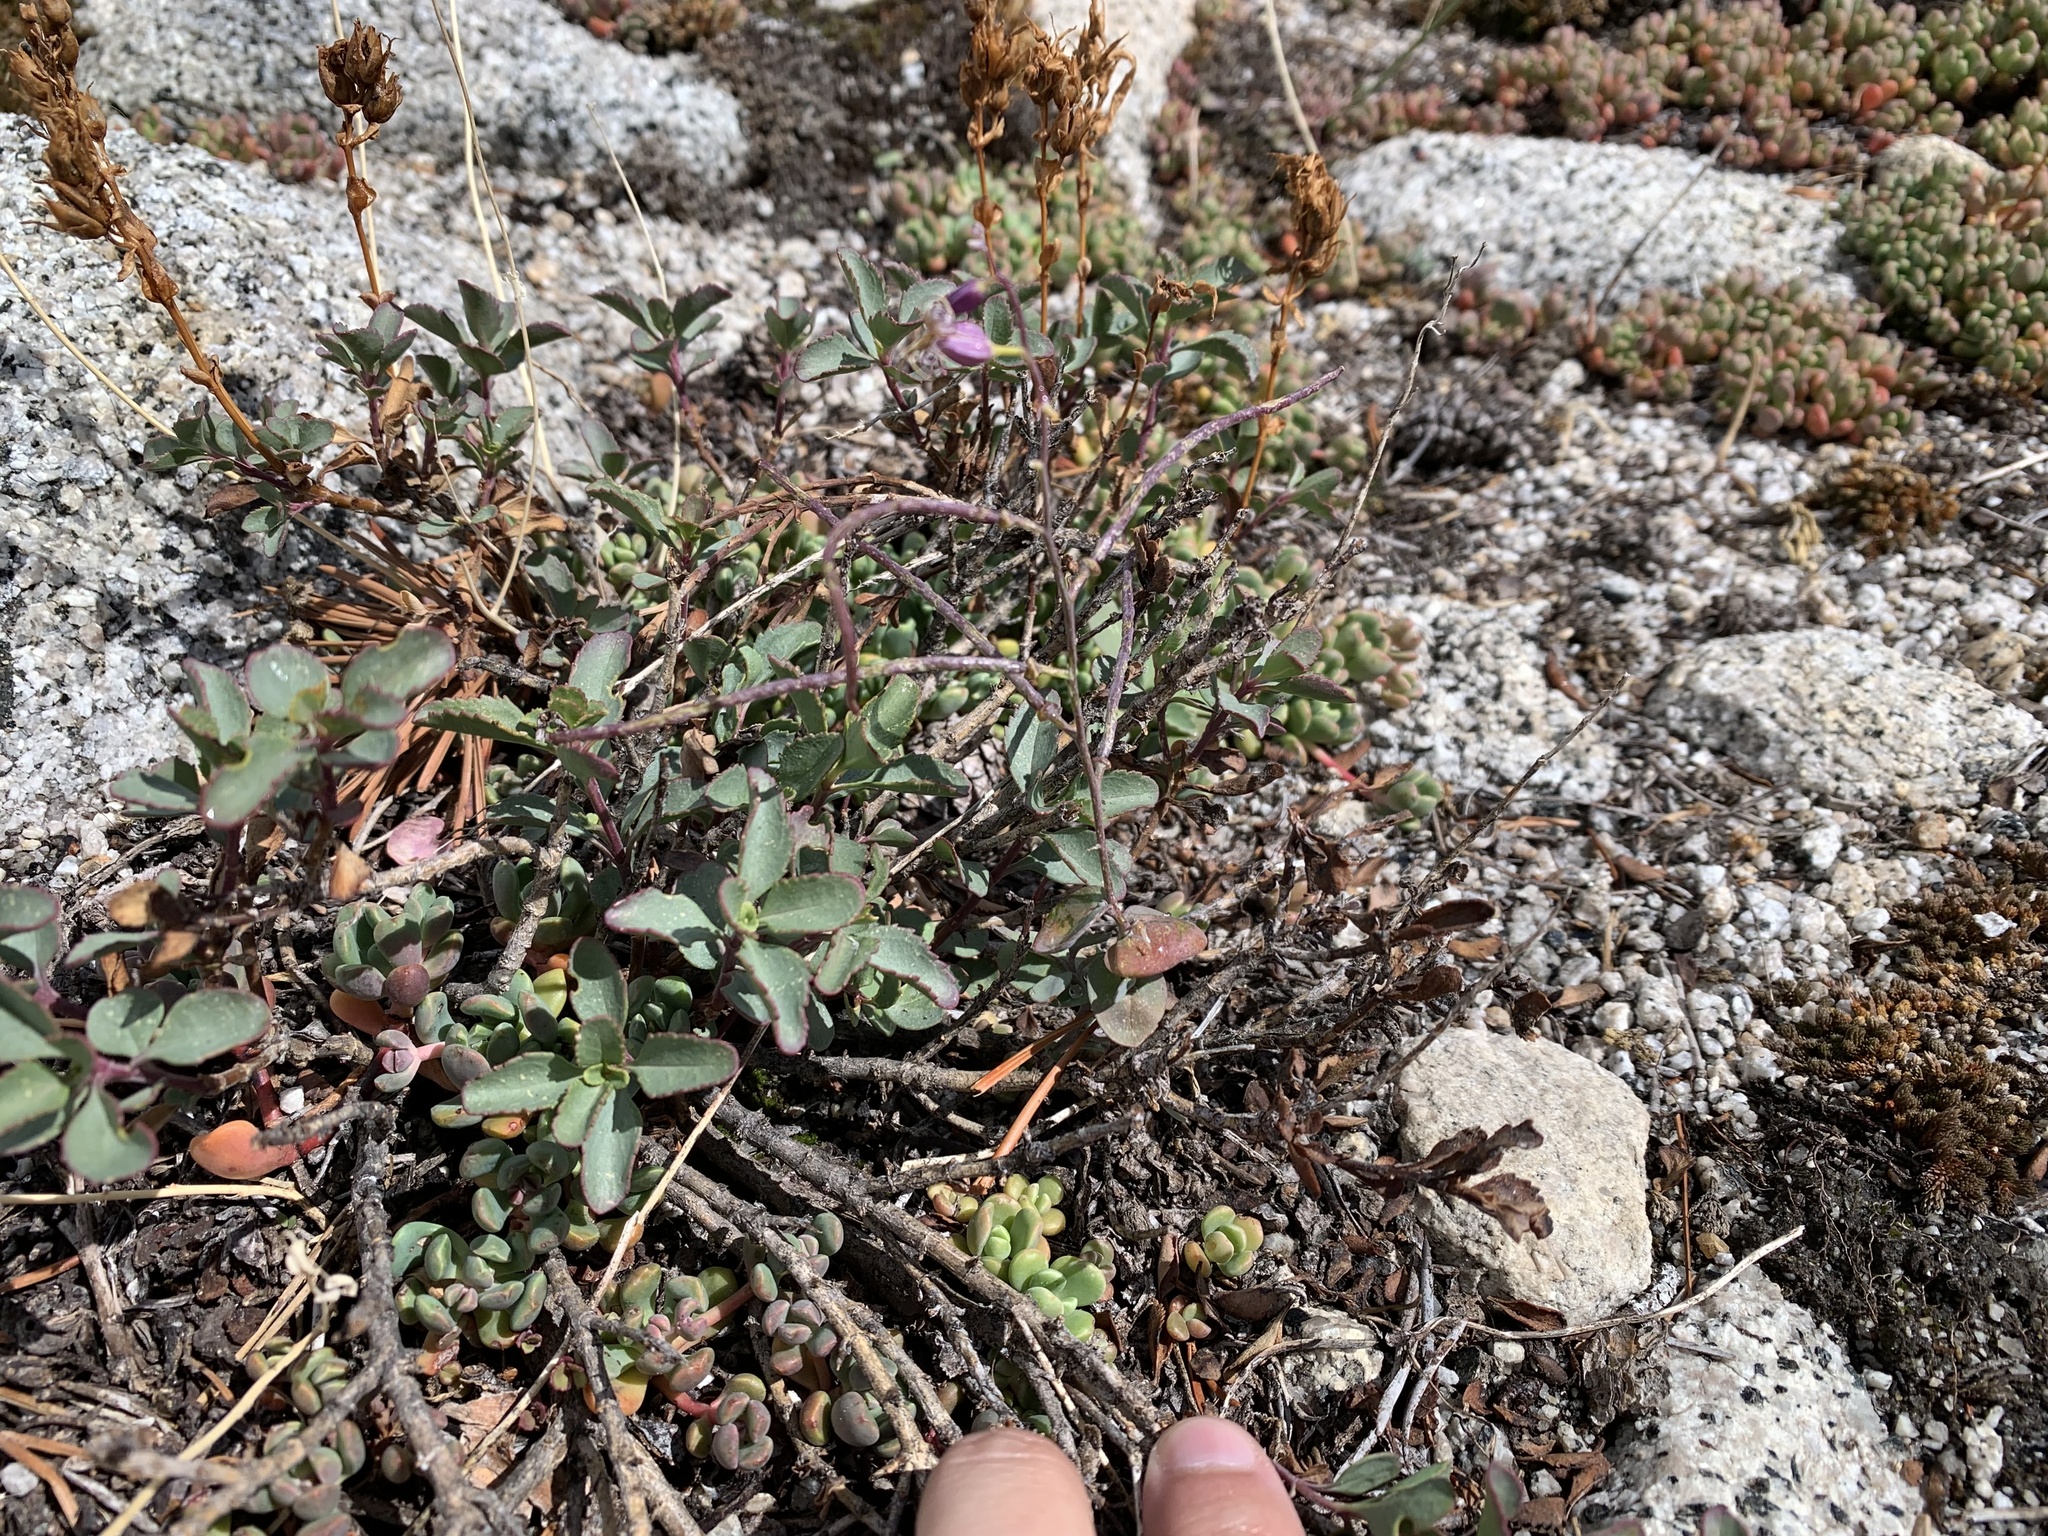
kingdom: Plantae
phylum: Tracheophyta
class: Magnoliopsida
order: Brassicales
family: Brassicaceae
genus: Streptanthus
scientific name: Streptanthus tortuosus
